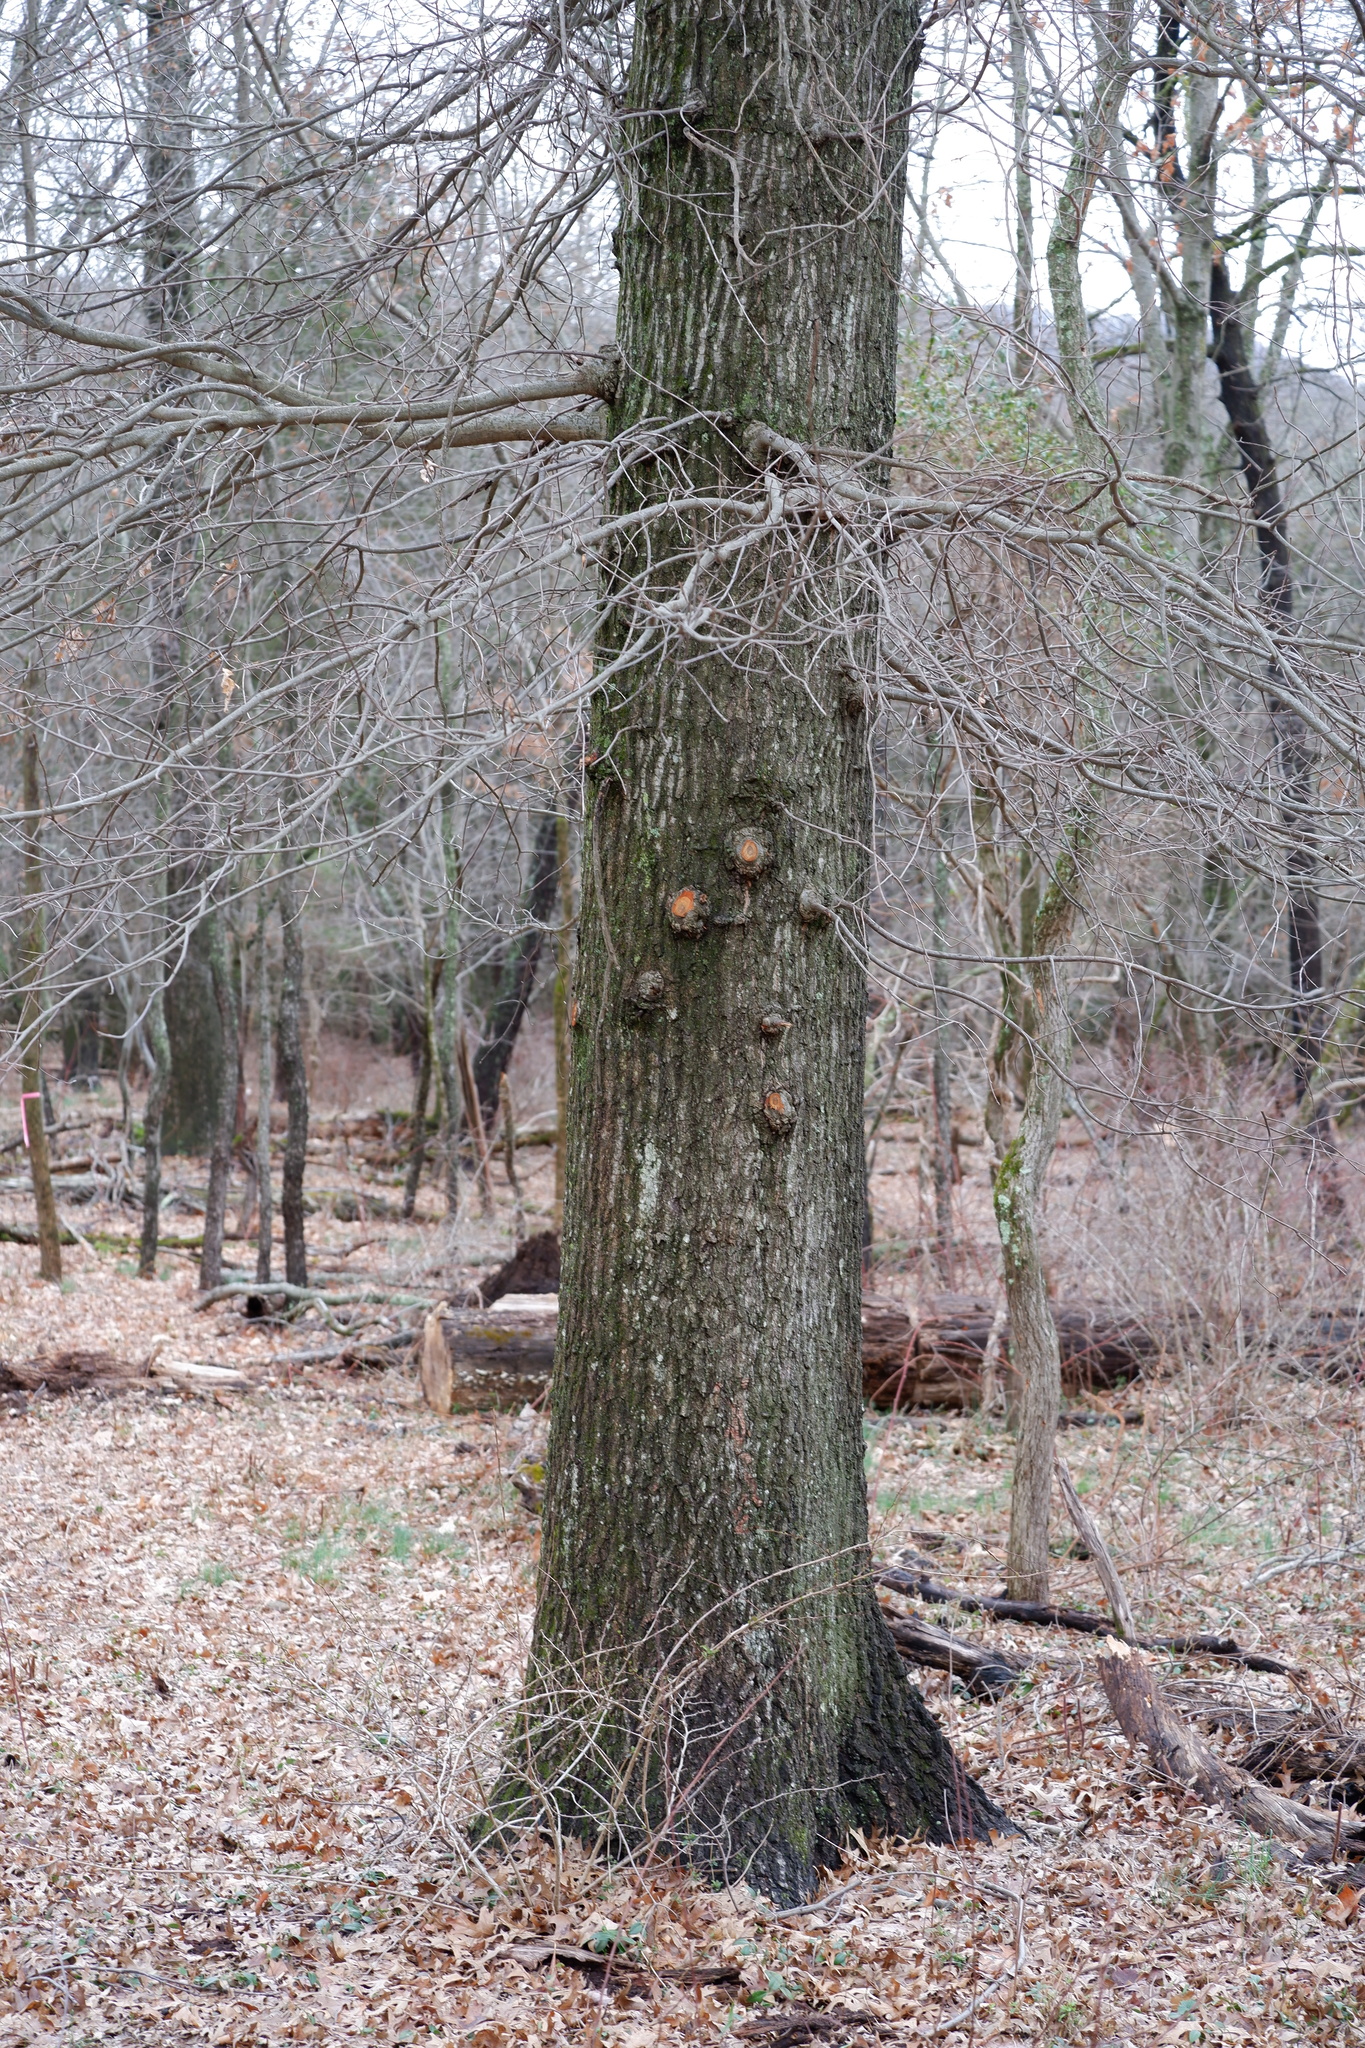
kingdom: Plantae
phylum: Tracheophyta
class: Magnoliopsida
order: Fagales
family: Fagaceae
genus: Quercus
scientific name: Quercus palustris
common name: Pin oak
